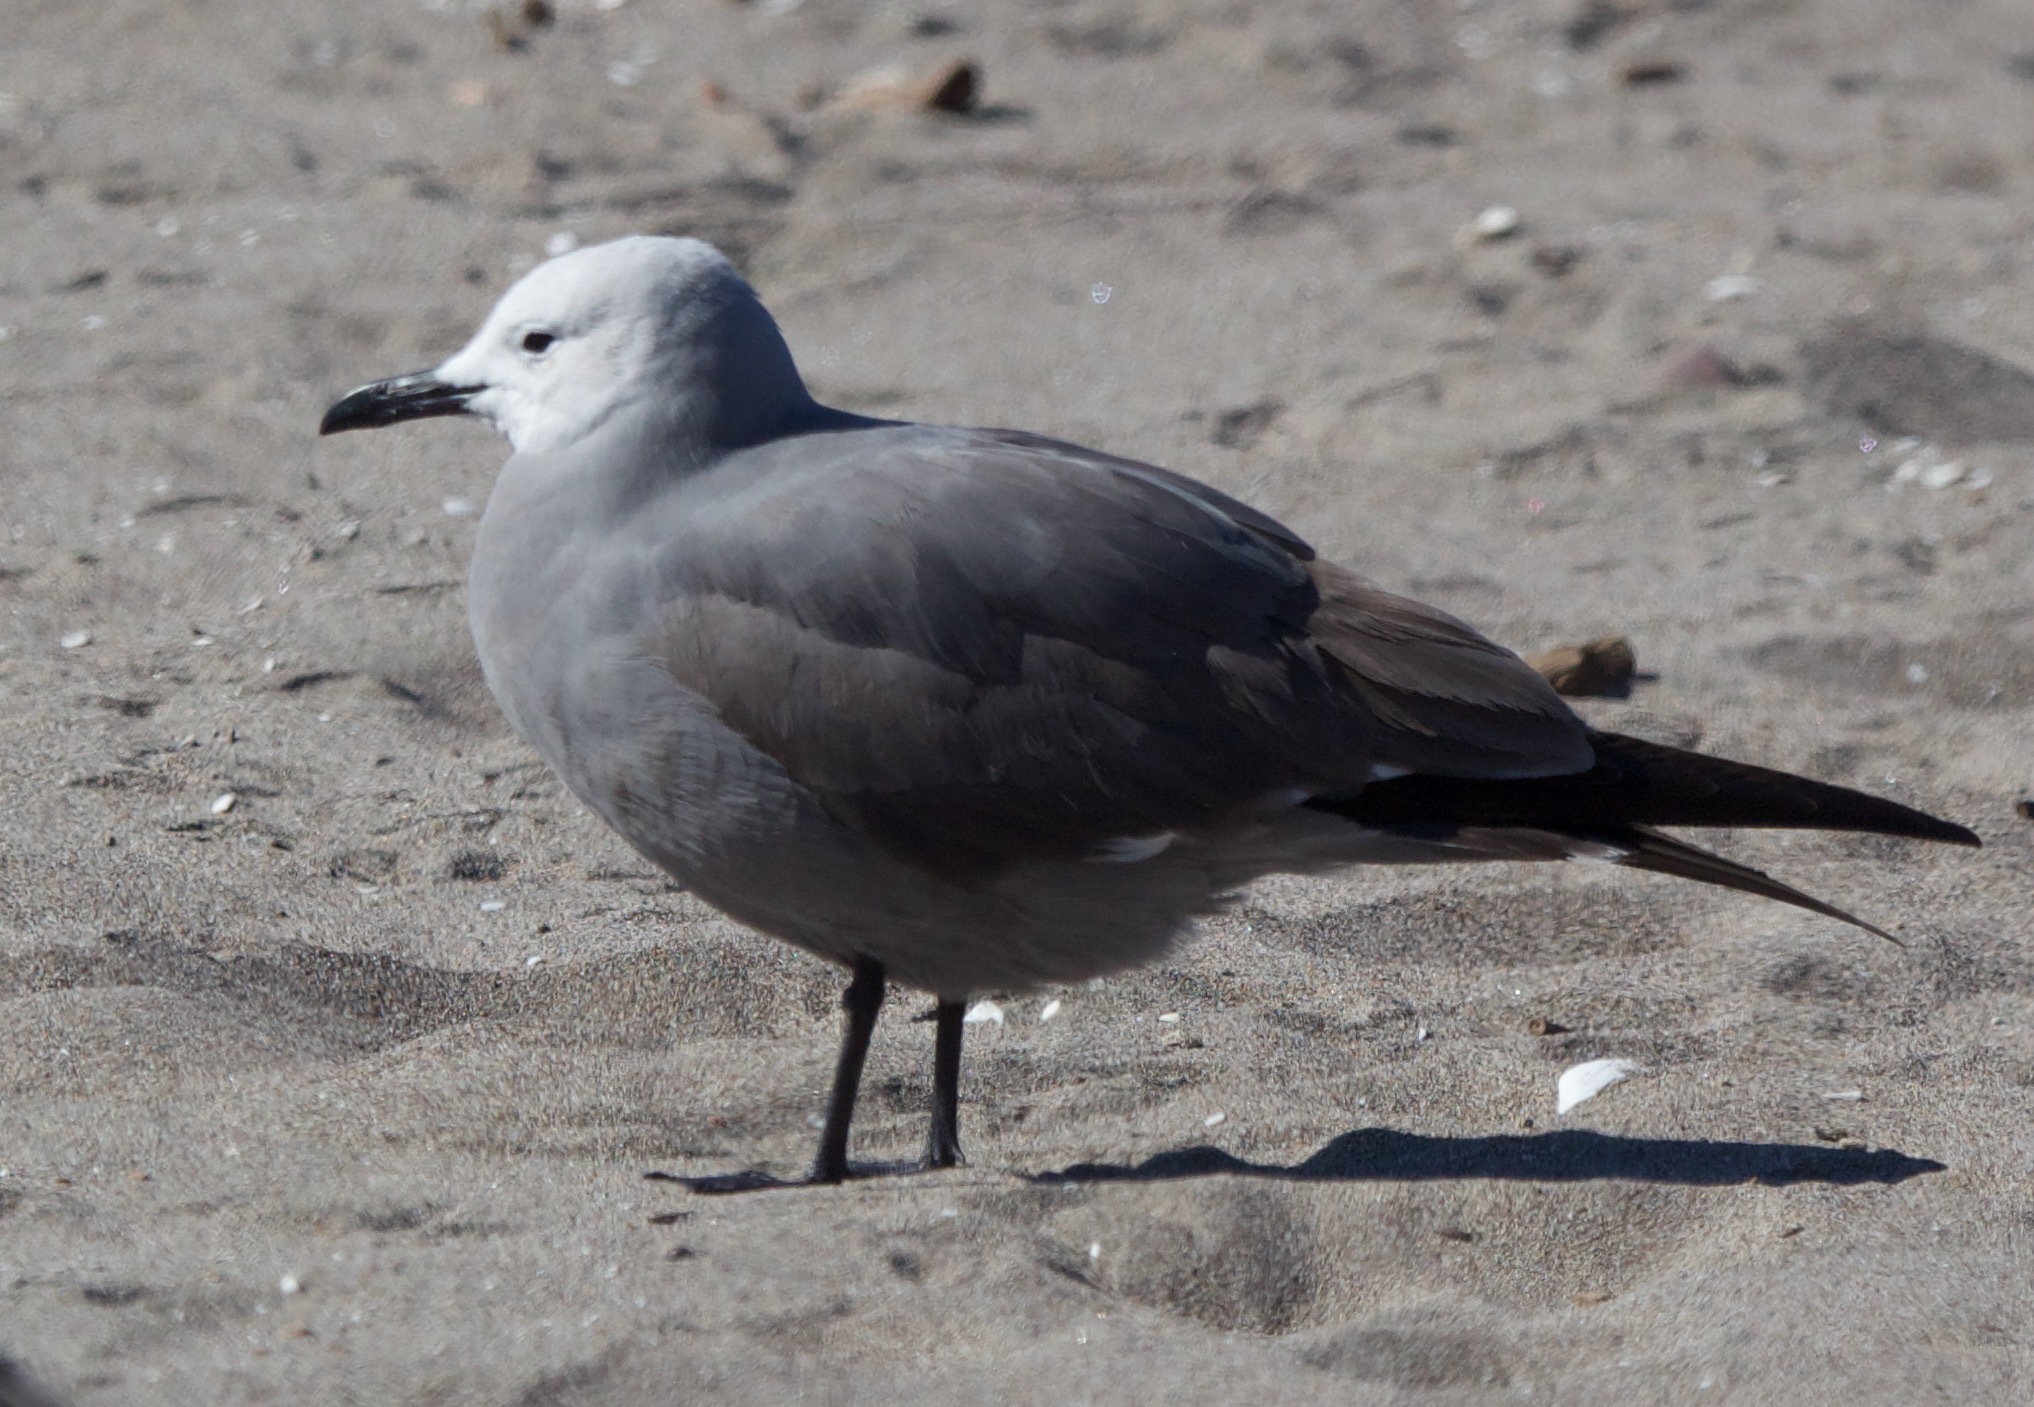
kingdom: Animalia
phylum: Chordata
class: Aves
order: Charadriiformes
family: Laridae
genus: Leucophaeus
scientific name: Leucophaeus modestus
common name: Gray gull
